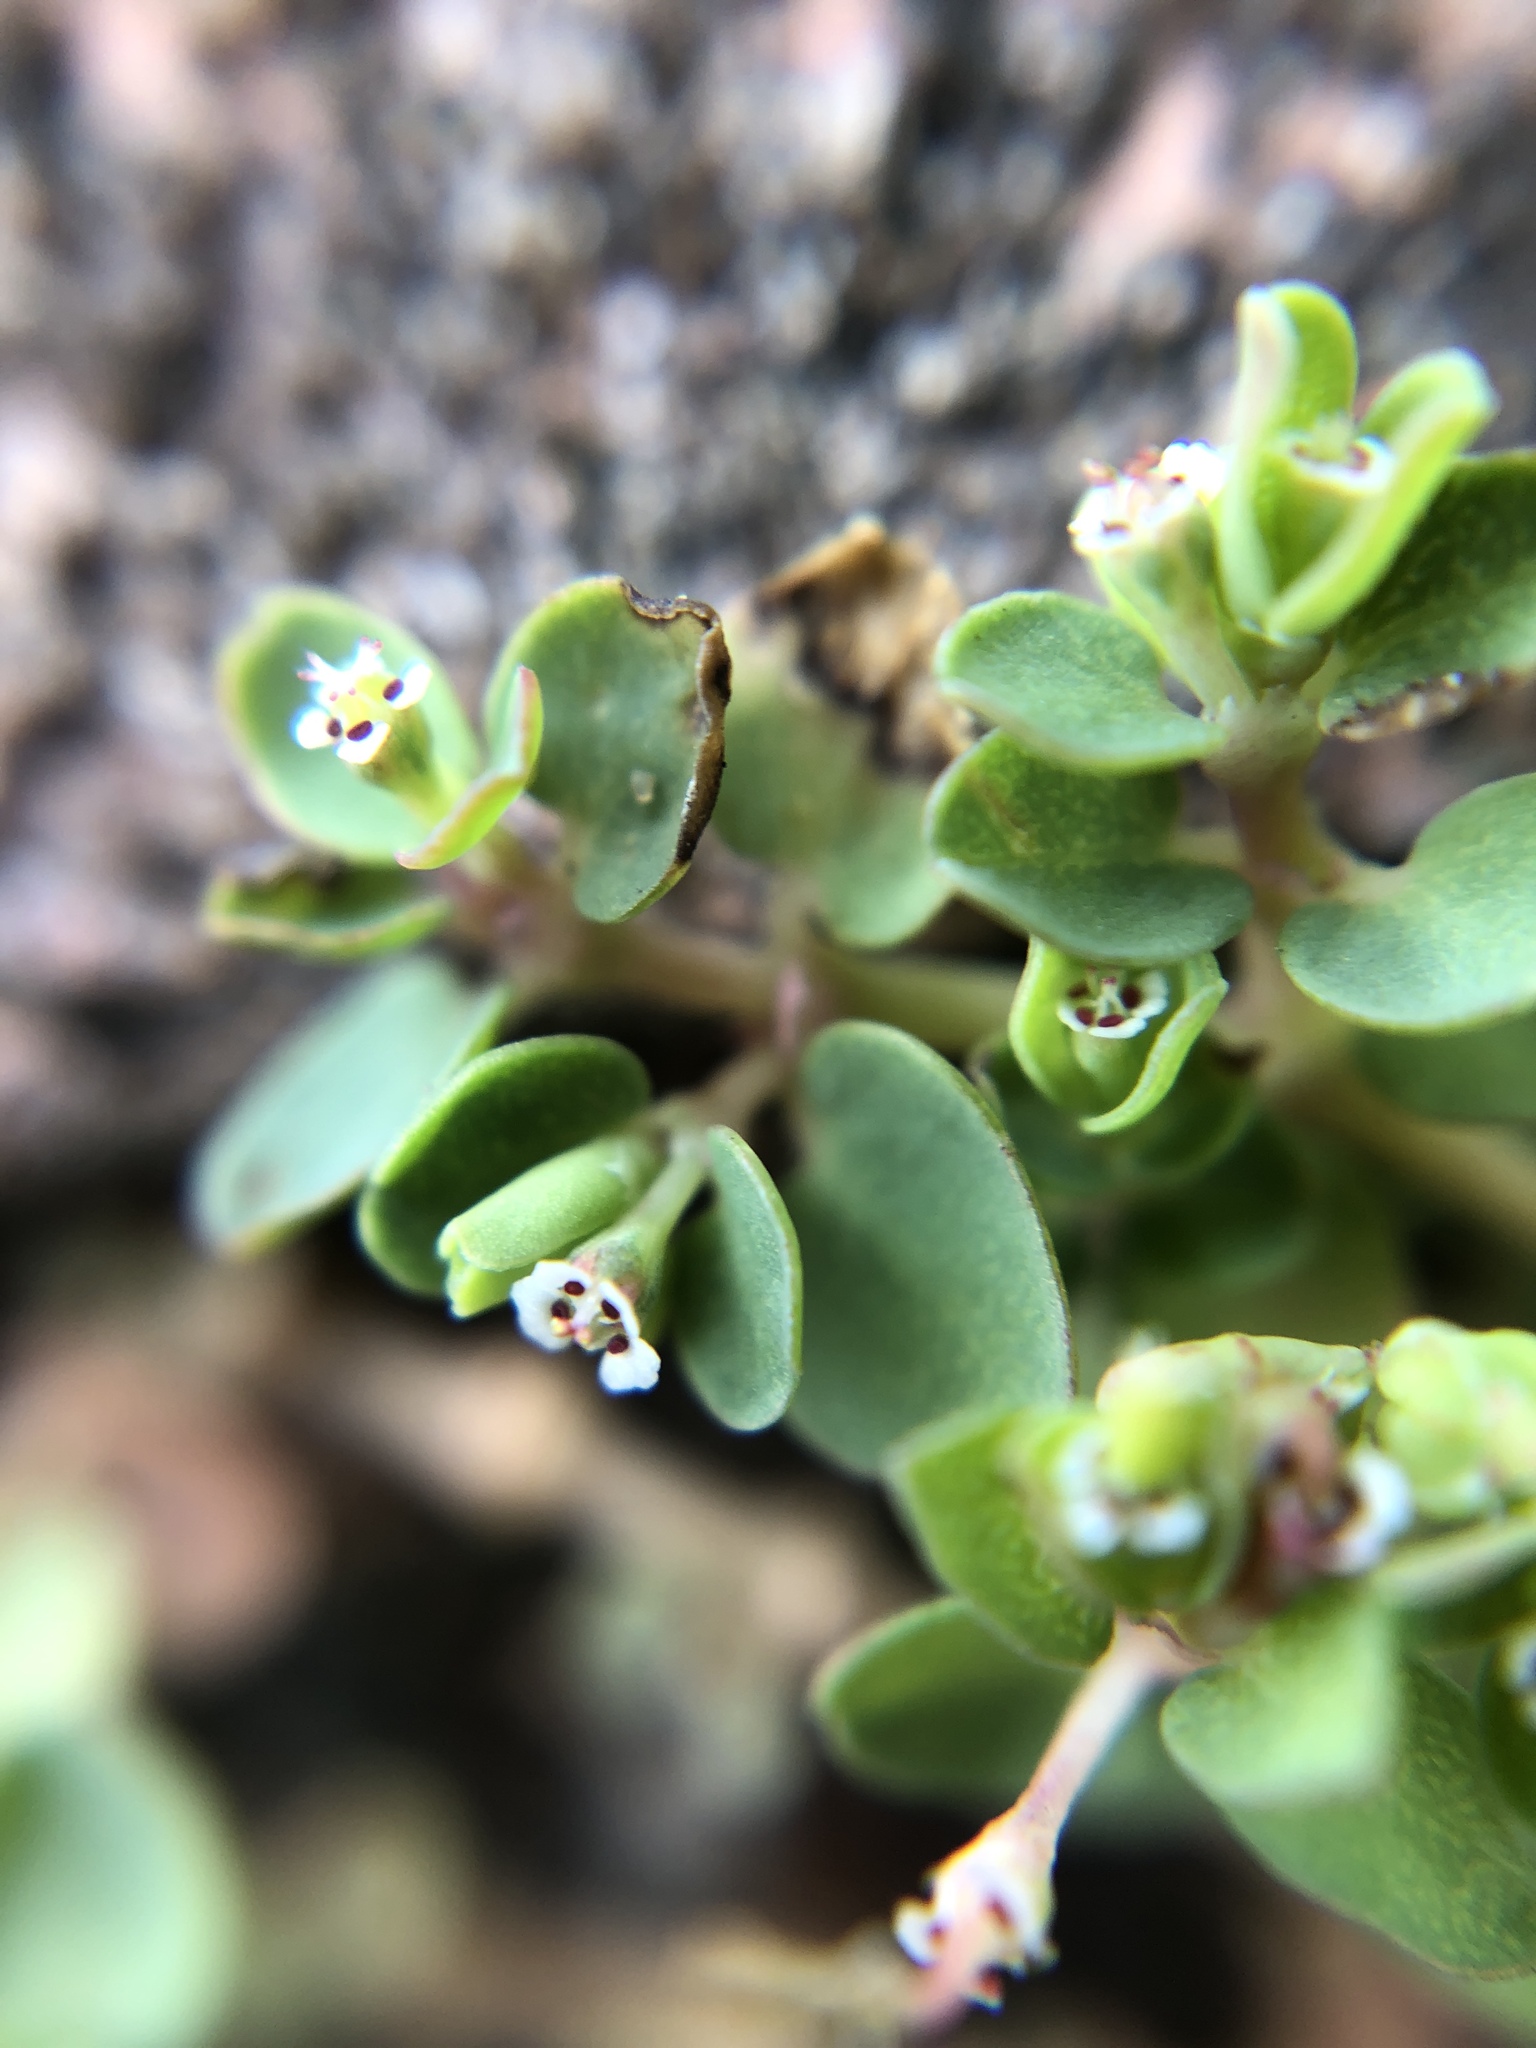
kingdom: Plantae
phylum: Tracheophyta
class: Magnoliopsida
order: Malpighiales
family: Euphorbiaceae
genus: Euphorbia
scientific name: Euphorbia serpens
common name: Matted sandmat
